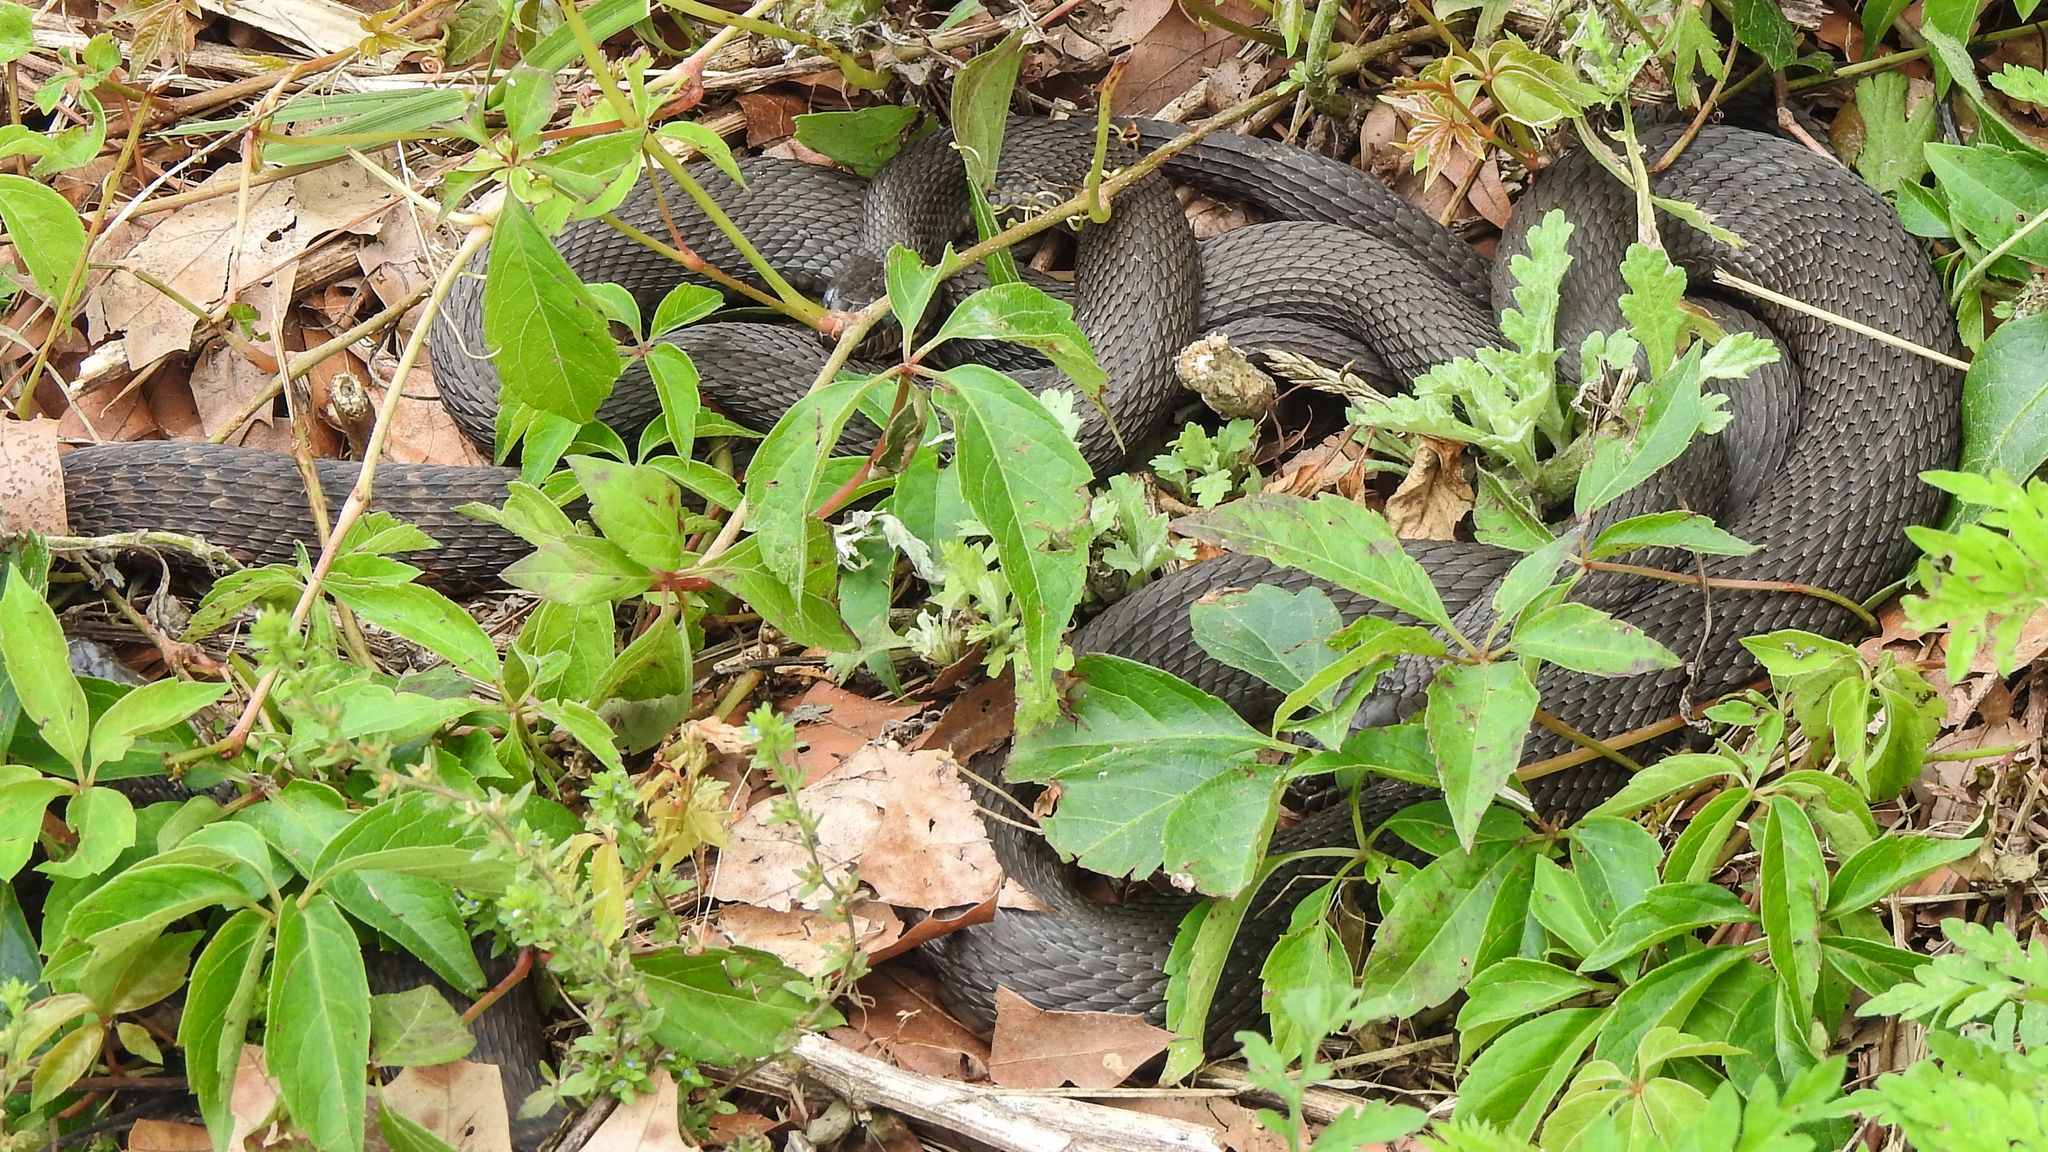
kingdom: Animalia
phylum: Chordata
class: Squamata
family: Colubridae
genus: Nerodia
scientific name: Nerodia sipedon
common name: Northern water snake
